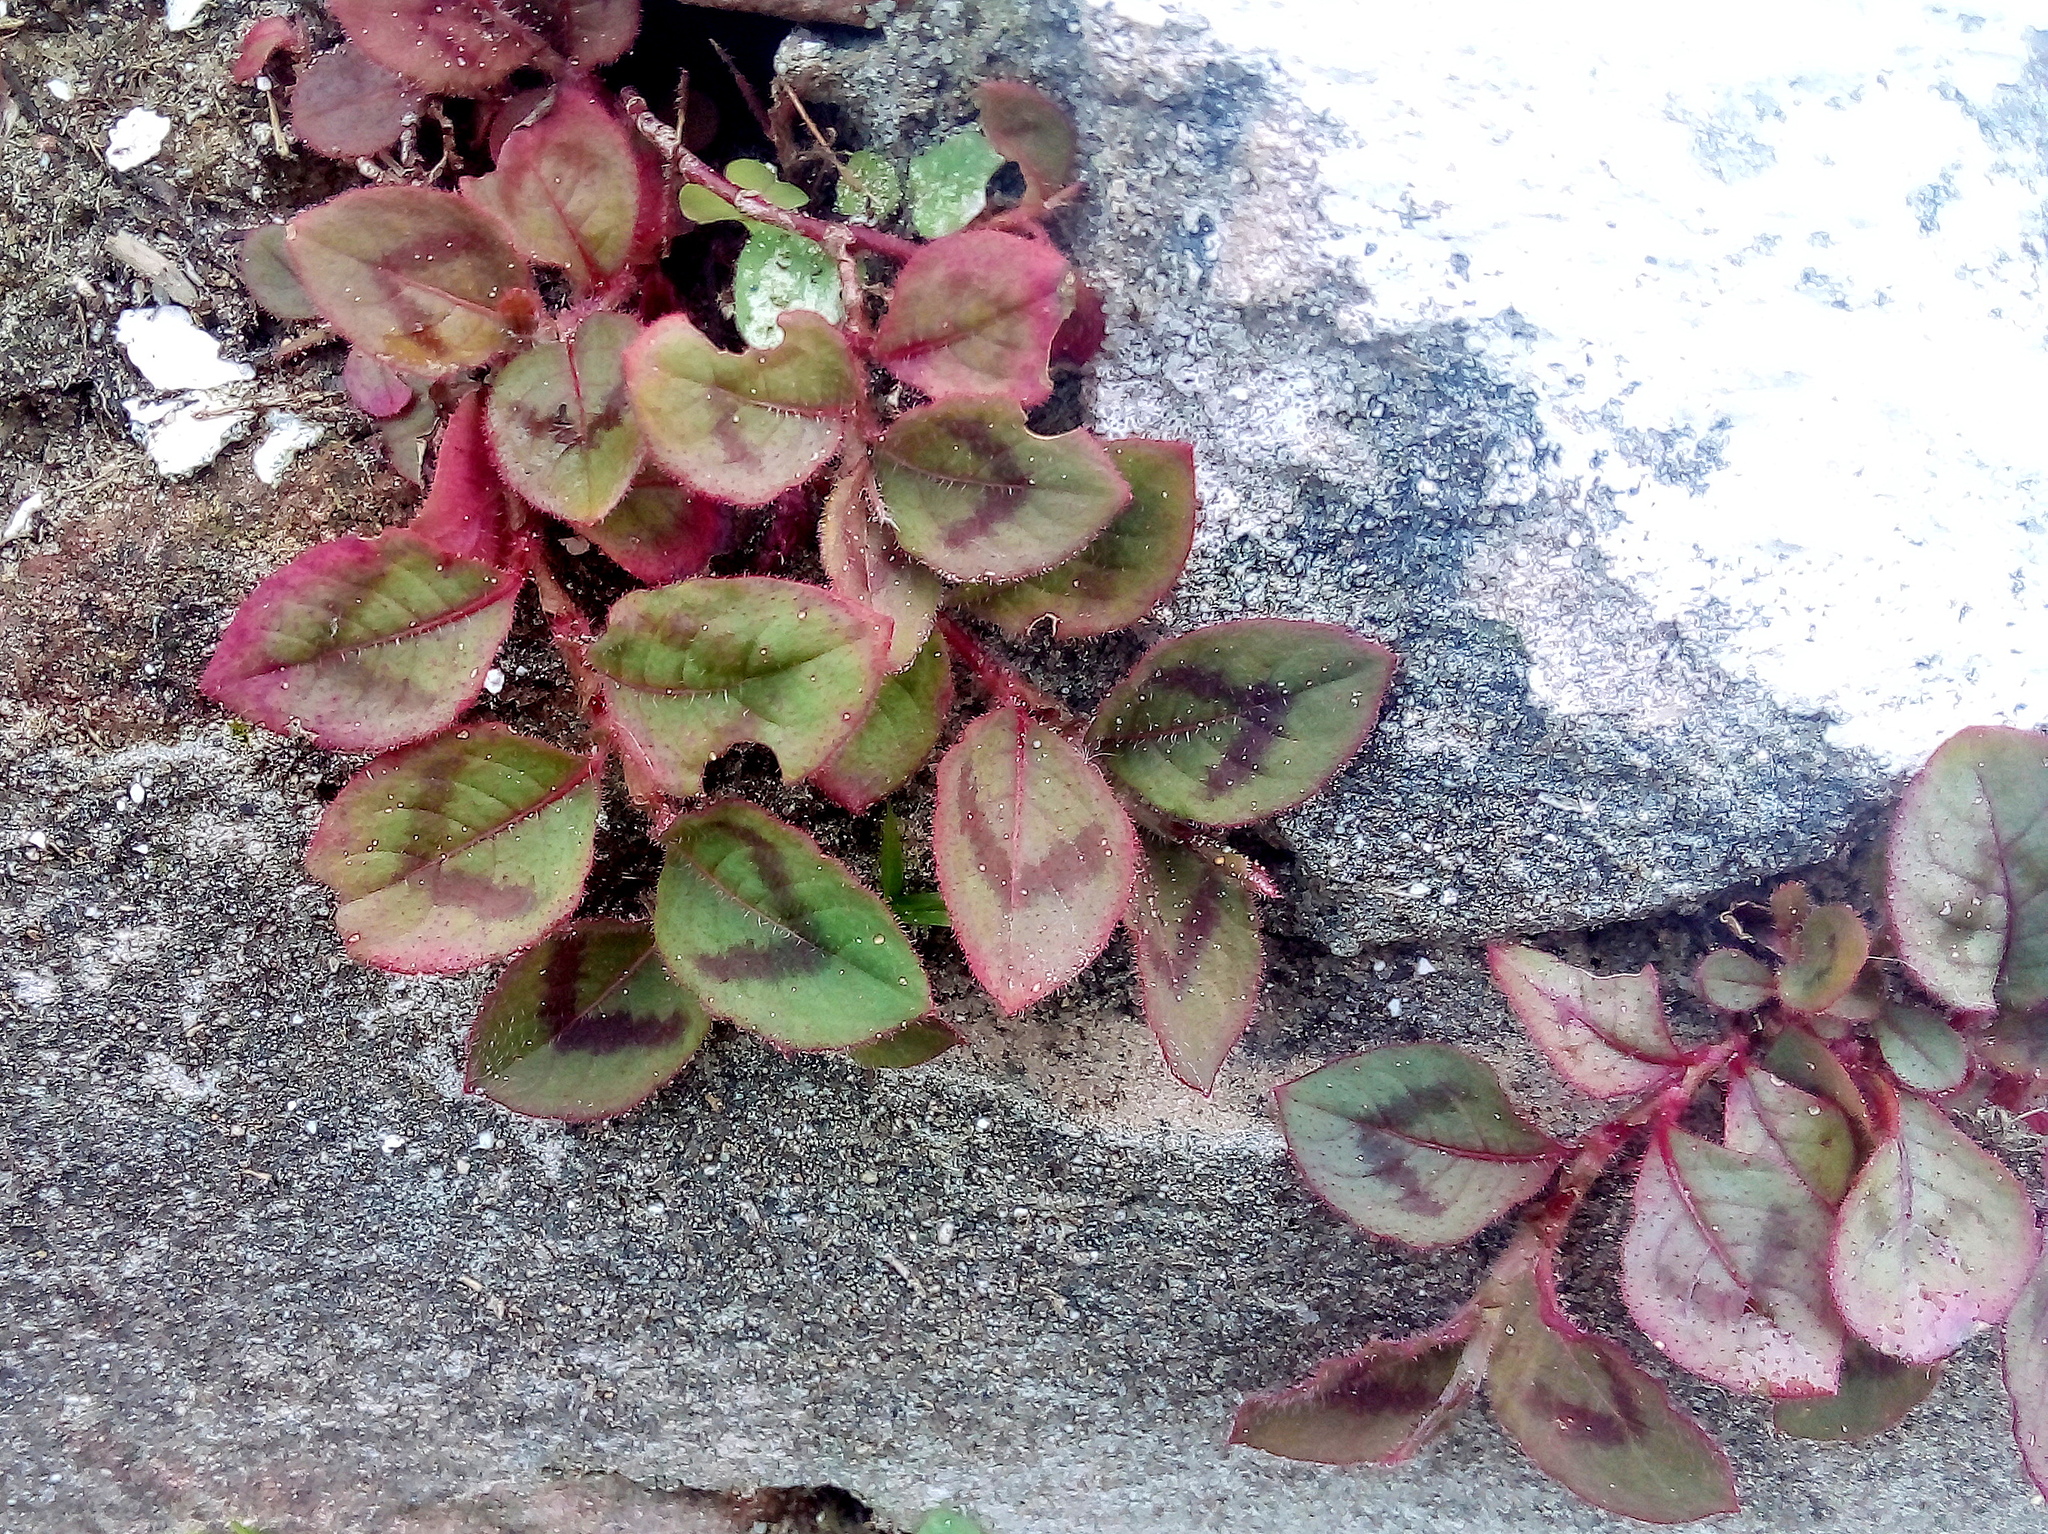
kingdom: Plantae
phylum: Tracheophyta
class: Magnoliopsida
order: Caryophyllales
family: Polygonaceae
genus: Persicaria
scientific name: Persicaria capitata
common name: Pinkhead smartweed
